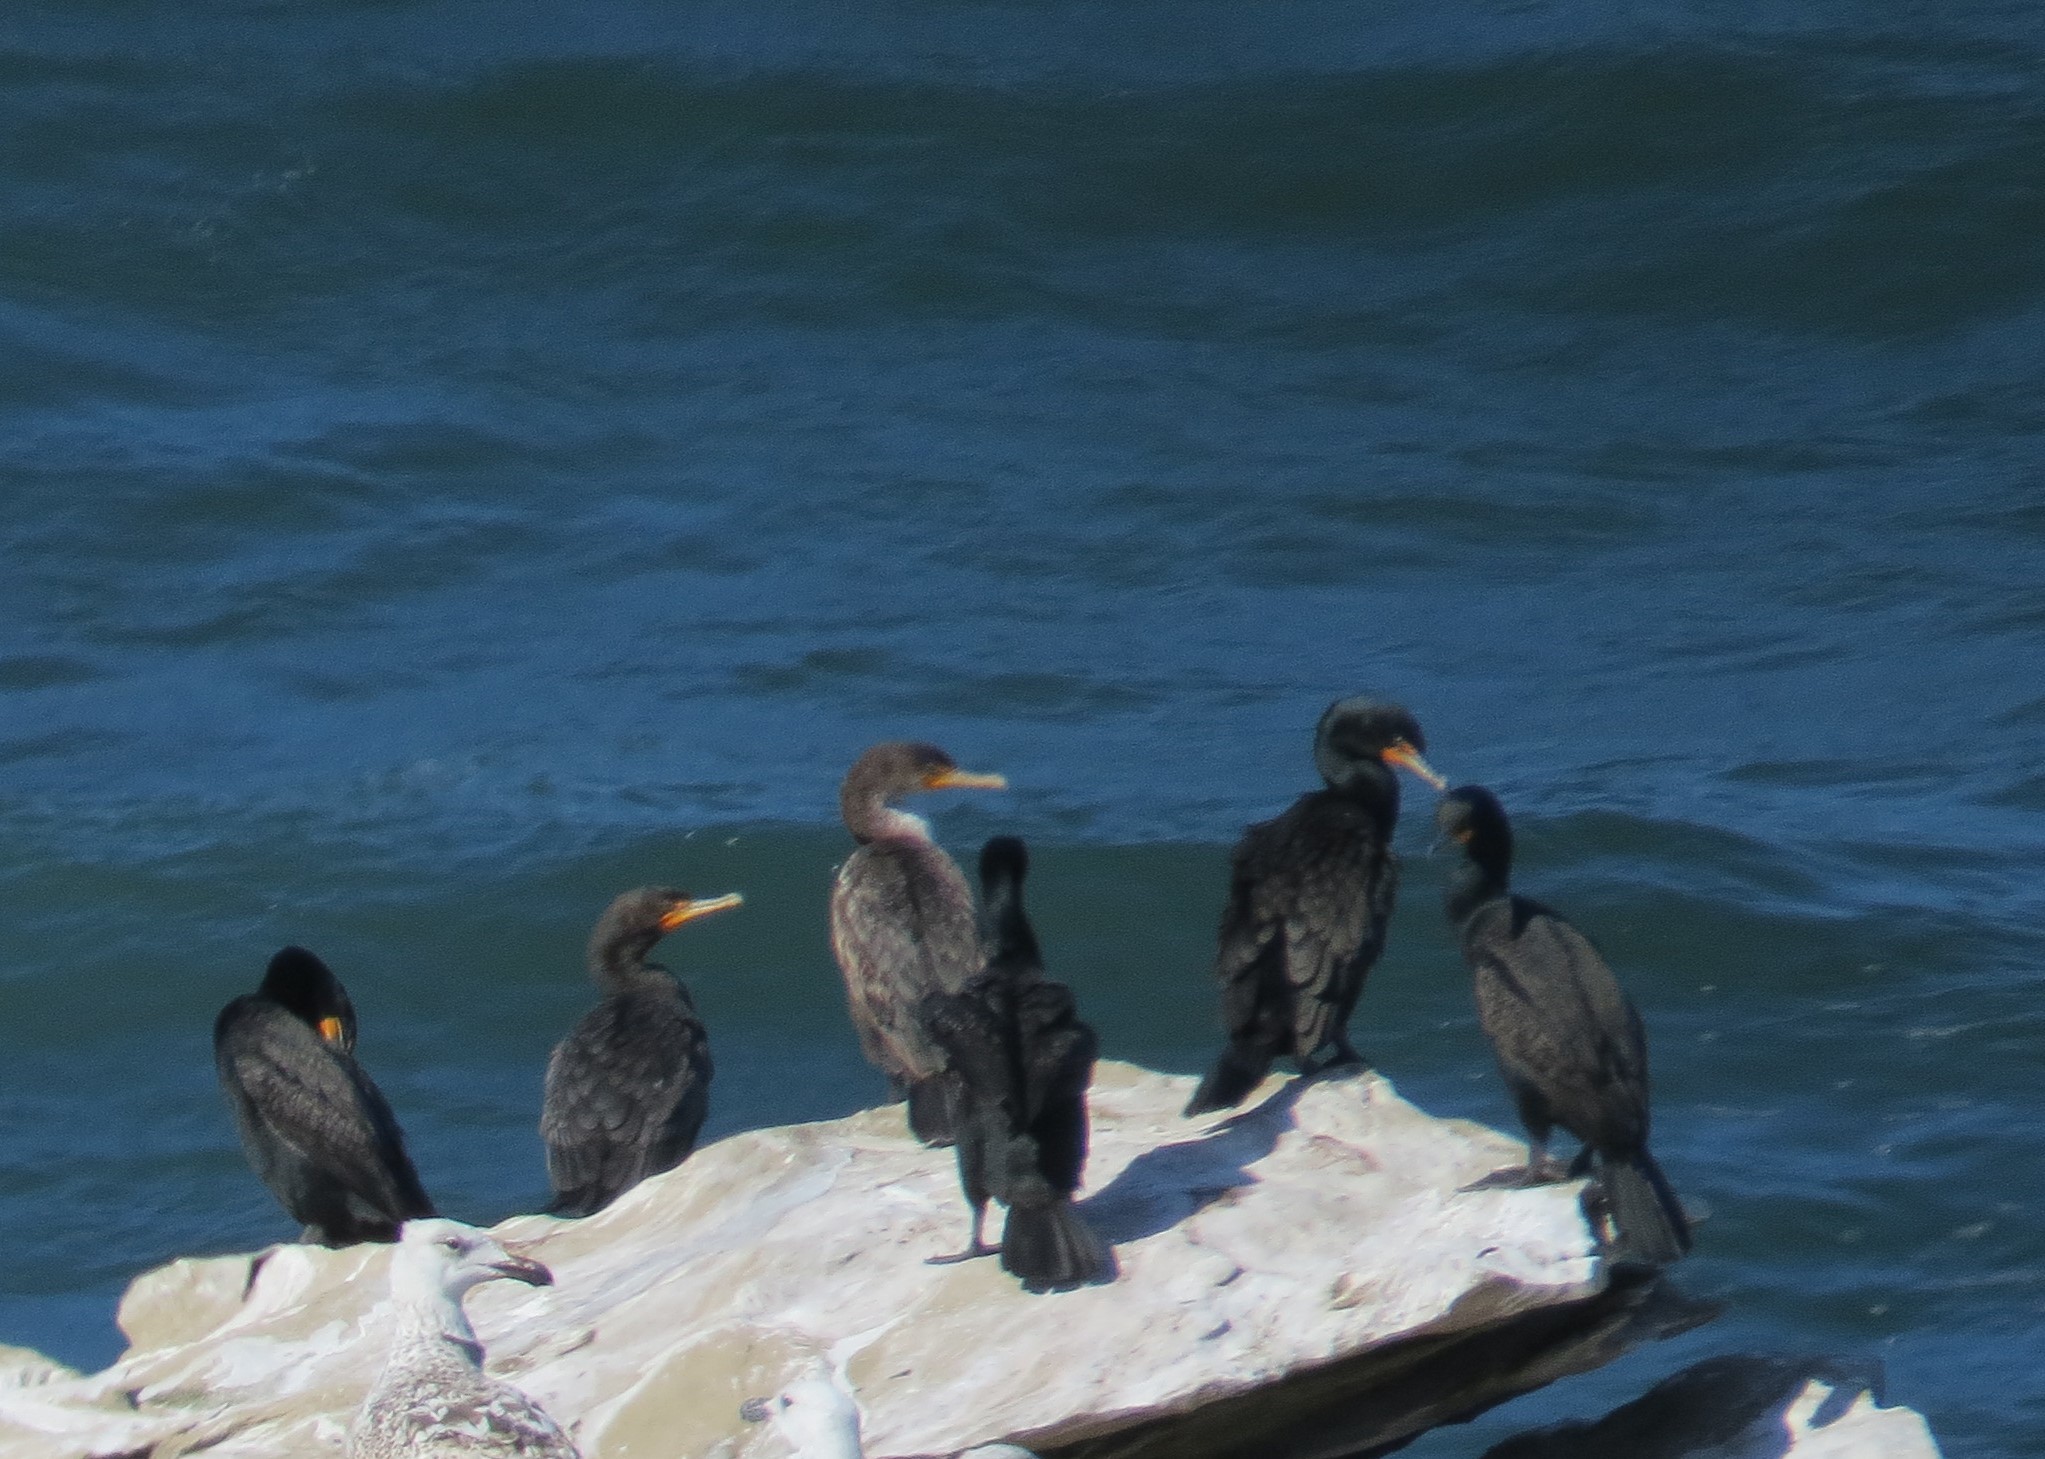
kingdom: Animalia
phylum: Chordata
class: Aves
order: Suliformes
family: Phalacrocoracidae
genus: Phalacrocorax
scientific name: Phalacrocorax auritus
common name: Double-crested cormorant
